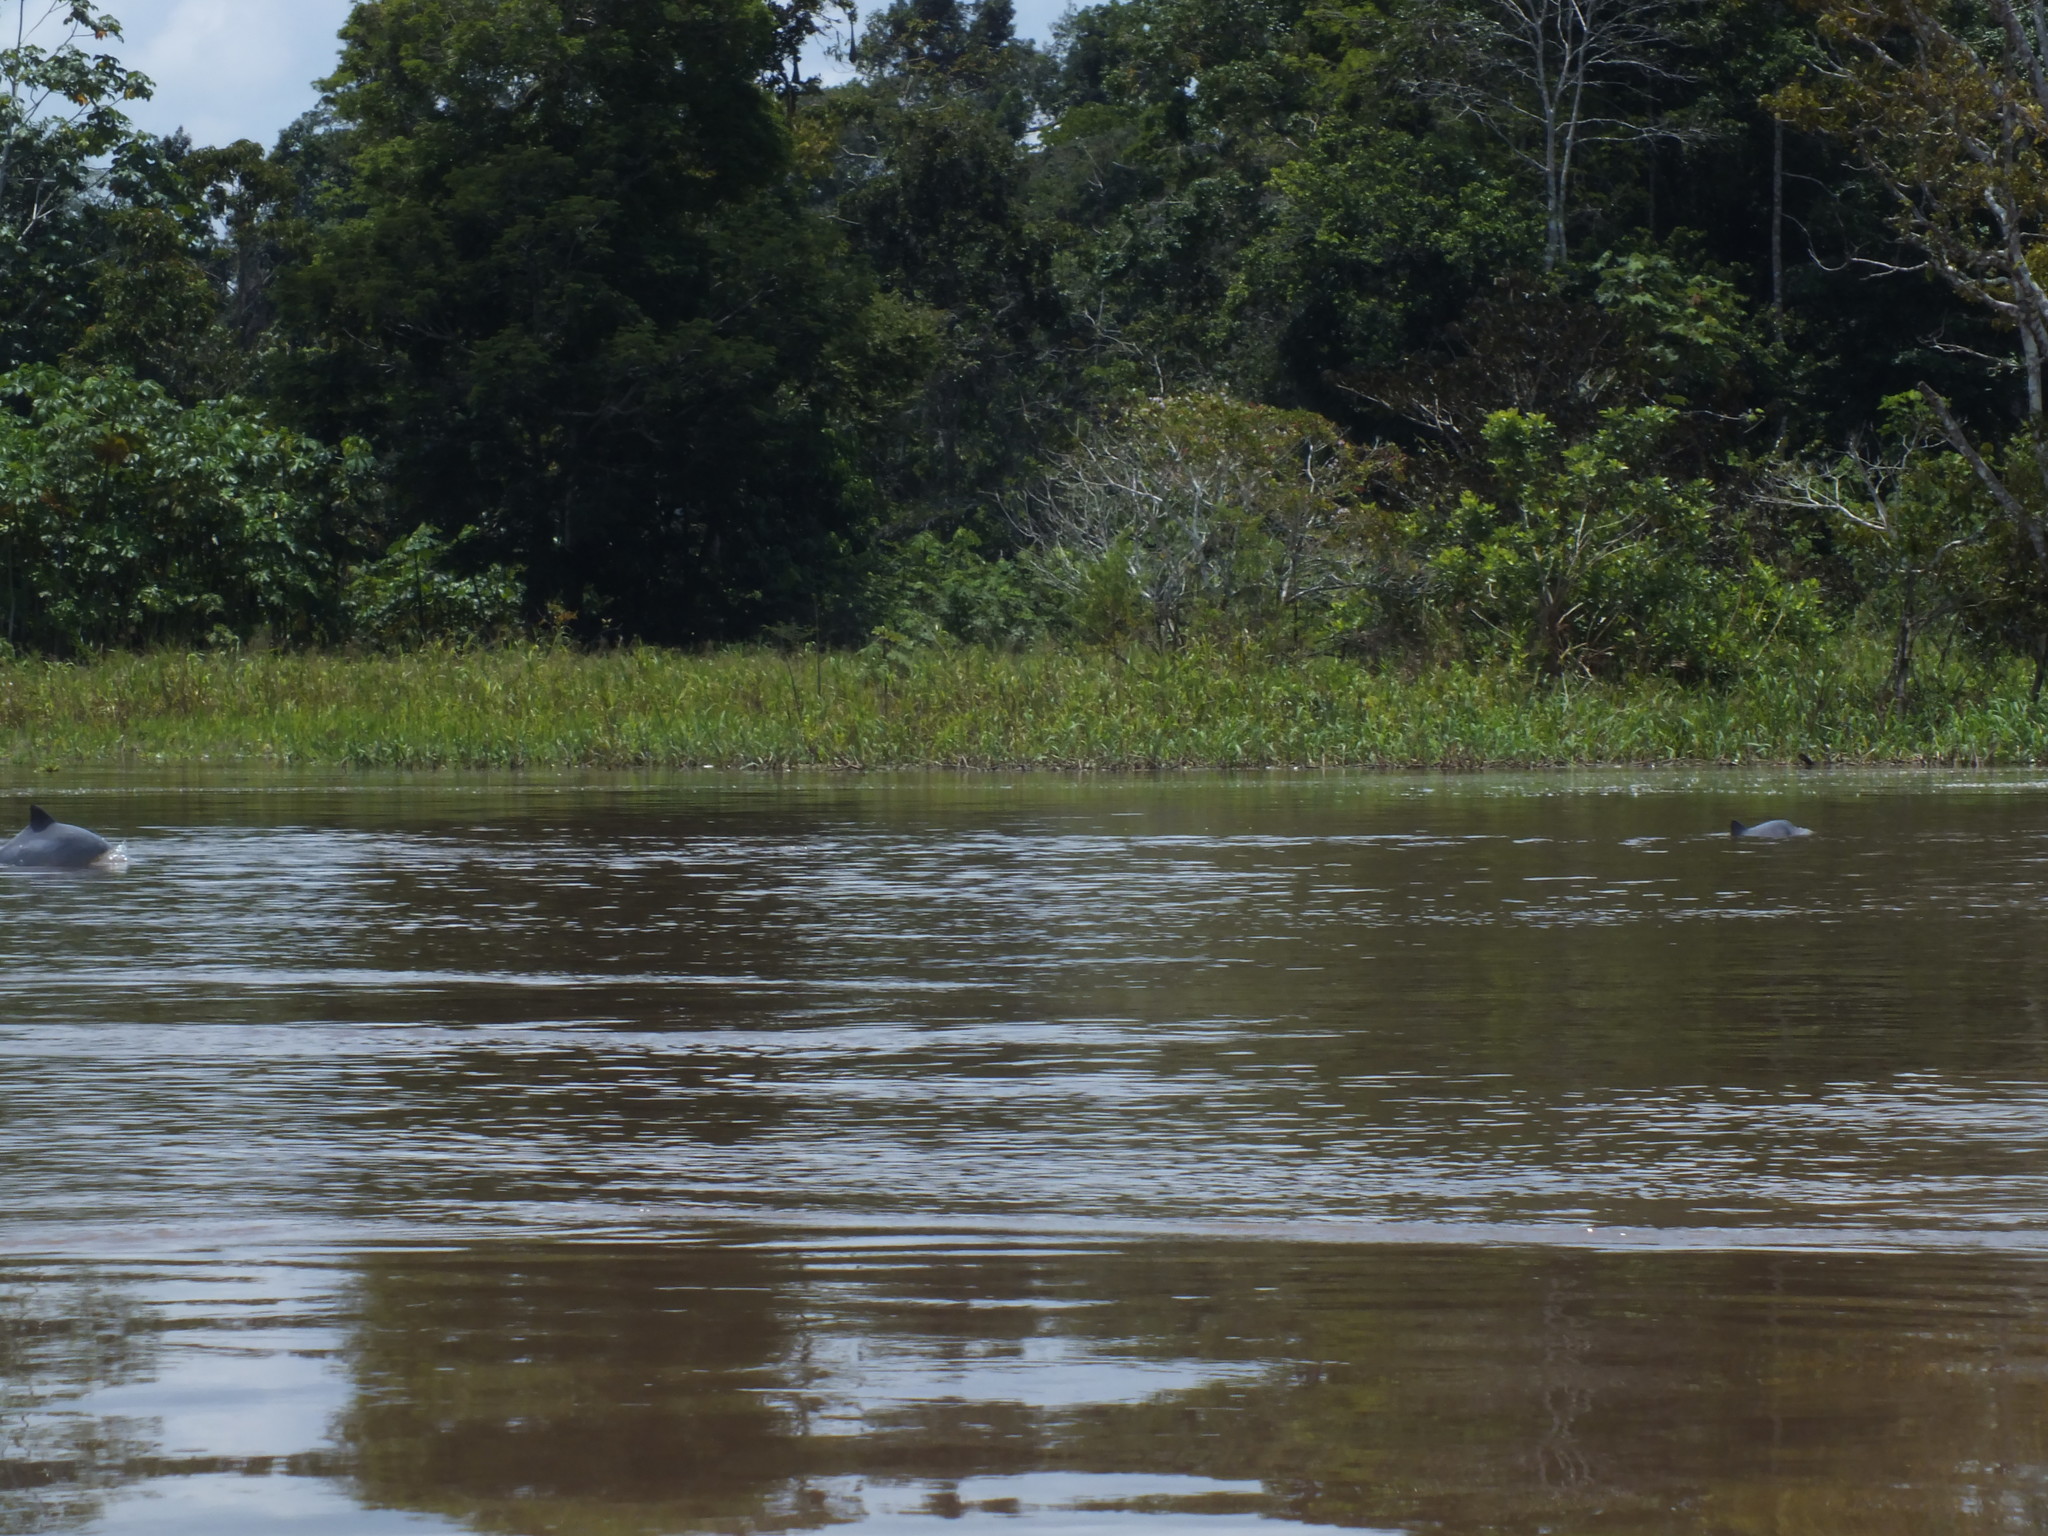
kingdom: Animalia
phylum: Chordata
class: Mammalia
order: Cetacea
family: Delphinidae
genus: Sotalia
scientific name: Sotalia fluviatilis
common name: Tucuxi
